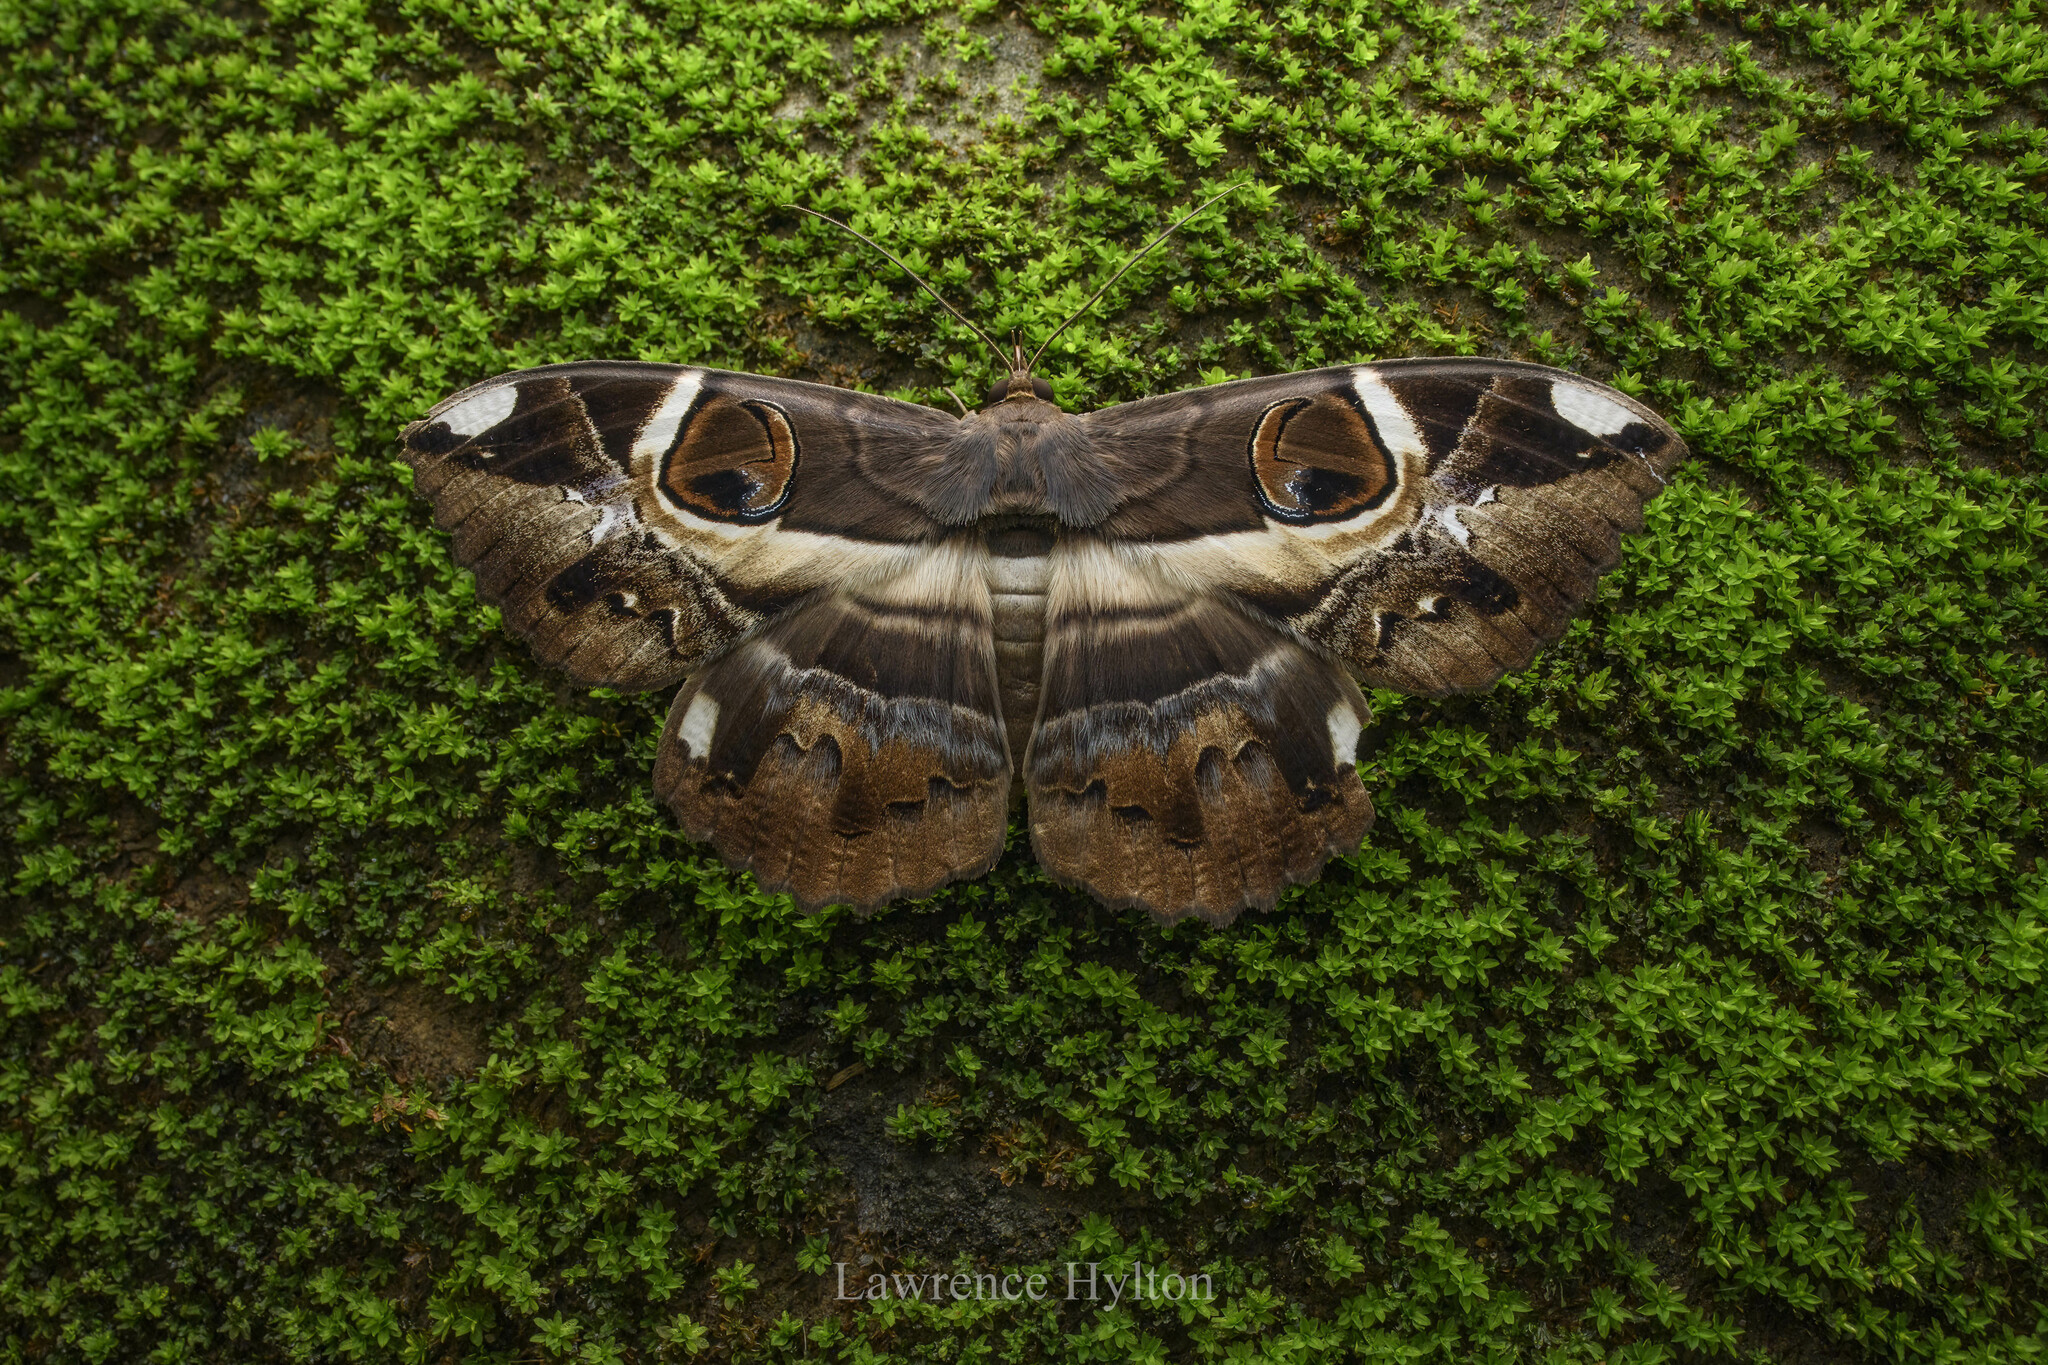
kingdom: Animalia
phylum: Arthropoda
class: Insecta
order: Lepidoptera
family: Erebidae
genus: Erebus
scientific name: Erebus ephesperis
